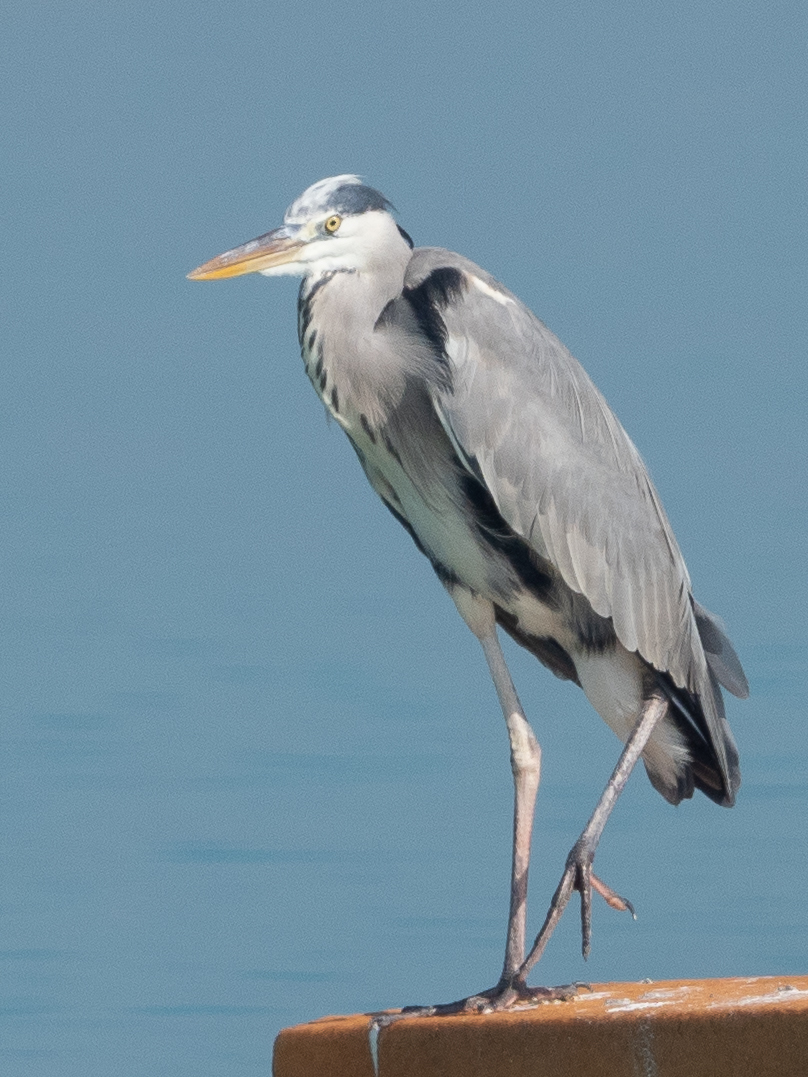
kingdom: Animalia
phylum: Chordata
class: Aves
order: Pelecaniformes
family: Ardeidae
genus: Ardea
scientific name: Ardea cinerea
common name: Grey heron
